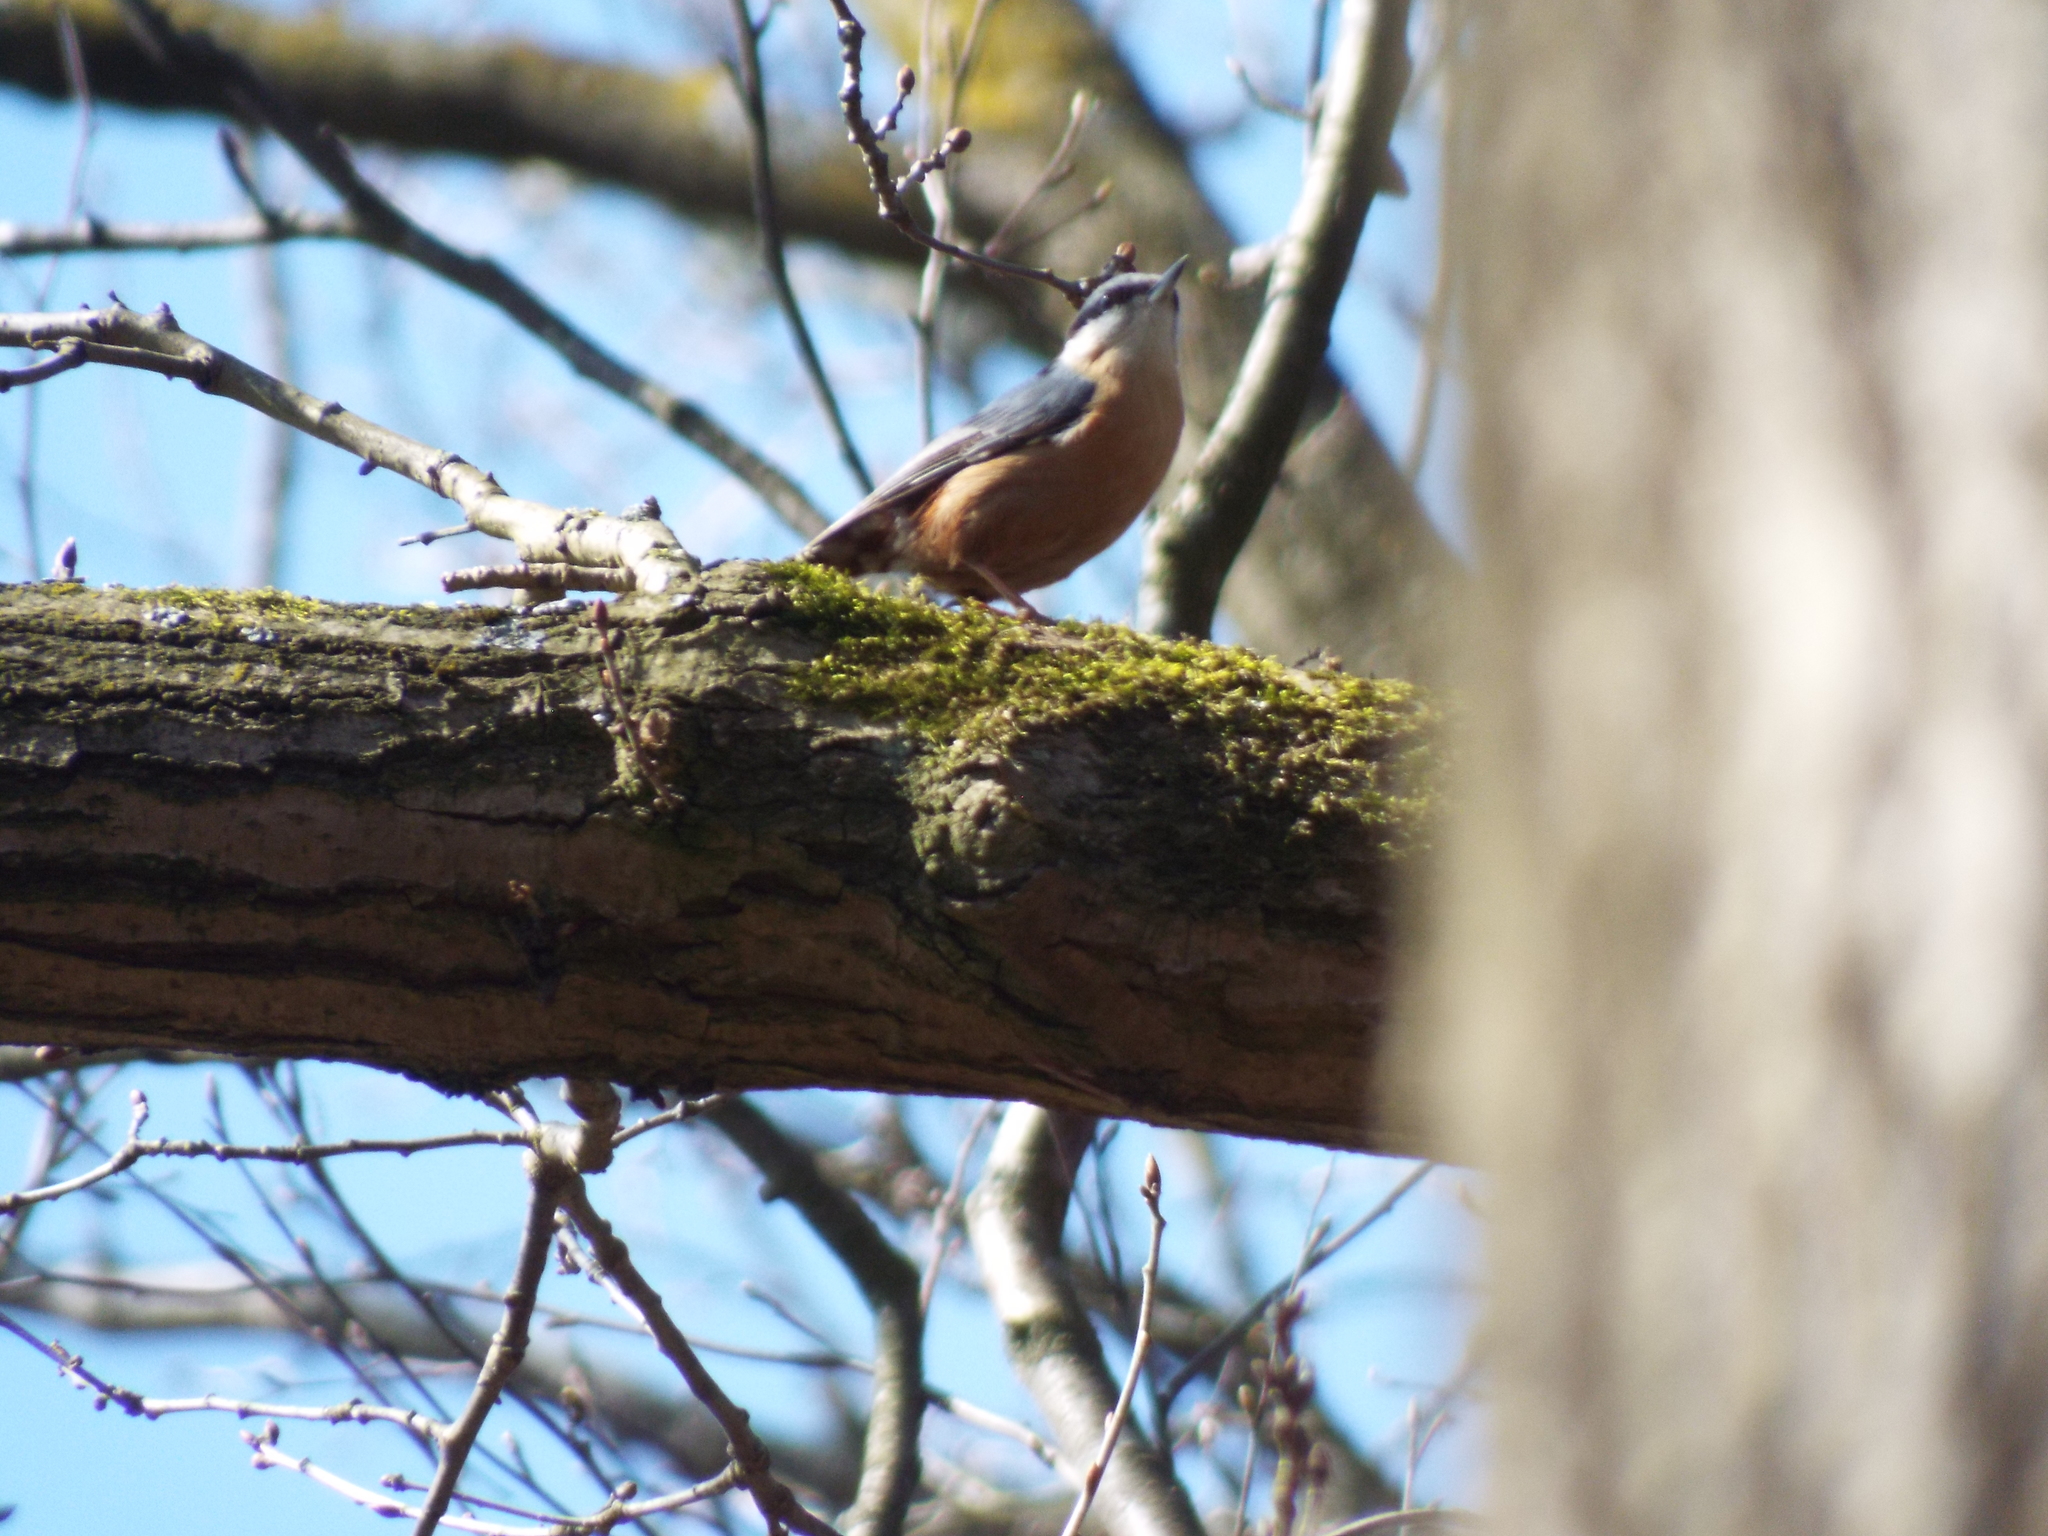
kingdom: Animalia
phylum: Chordata
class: Aves
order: Passeriformes
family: Sittidae
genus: Sitta
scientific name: Sitta europaea
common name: Eurasian nuthatch
